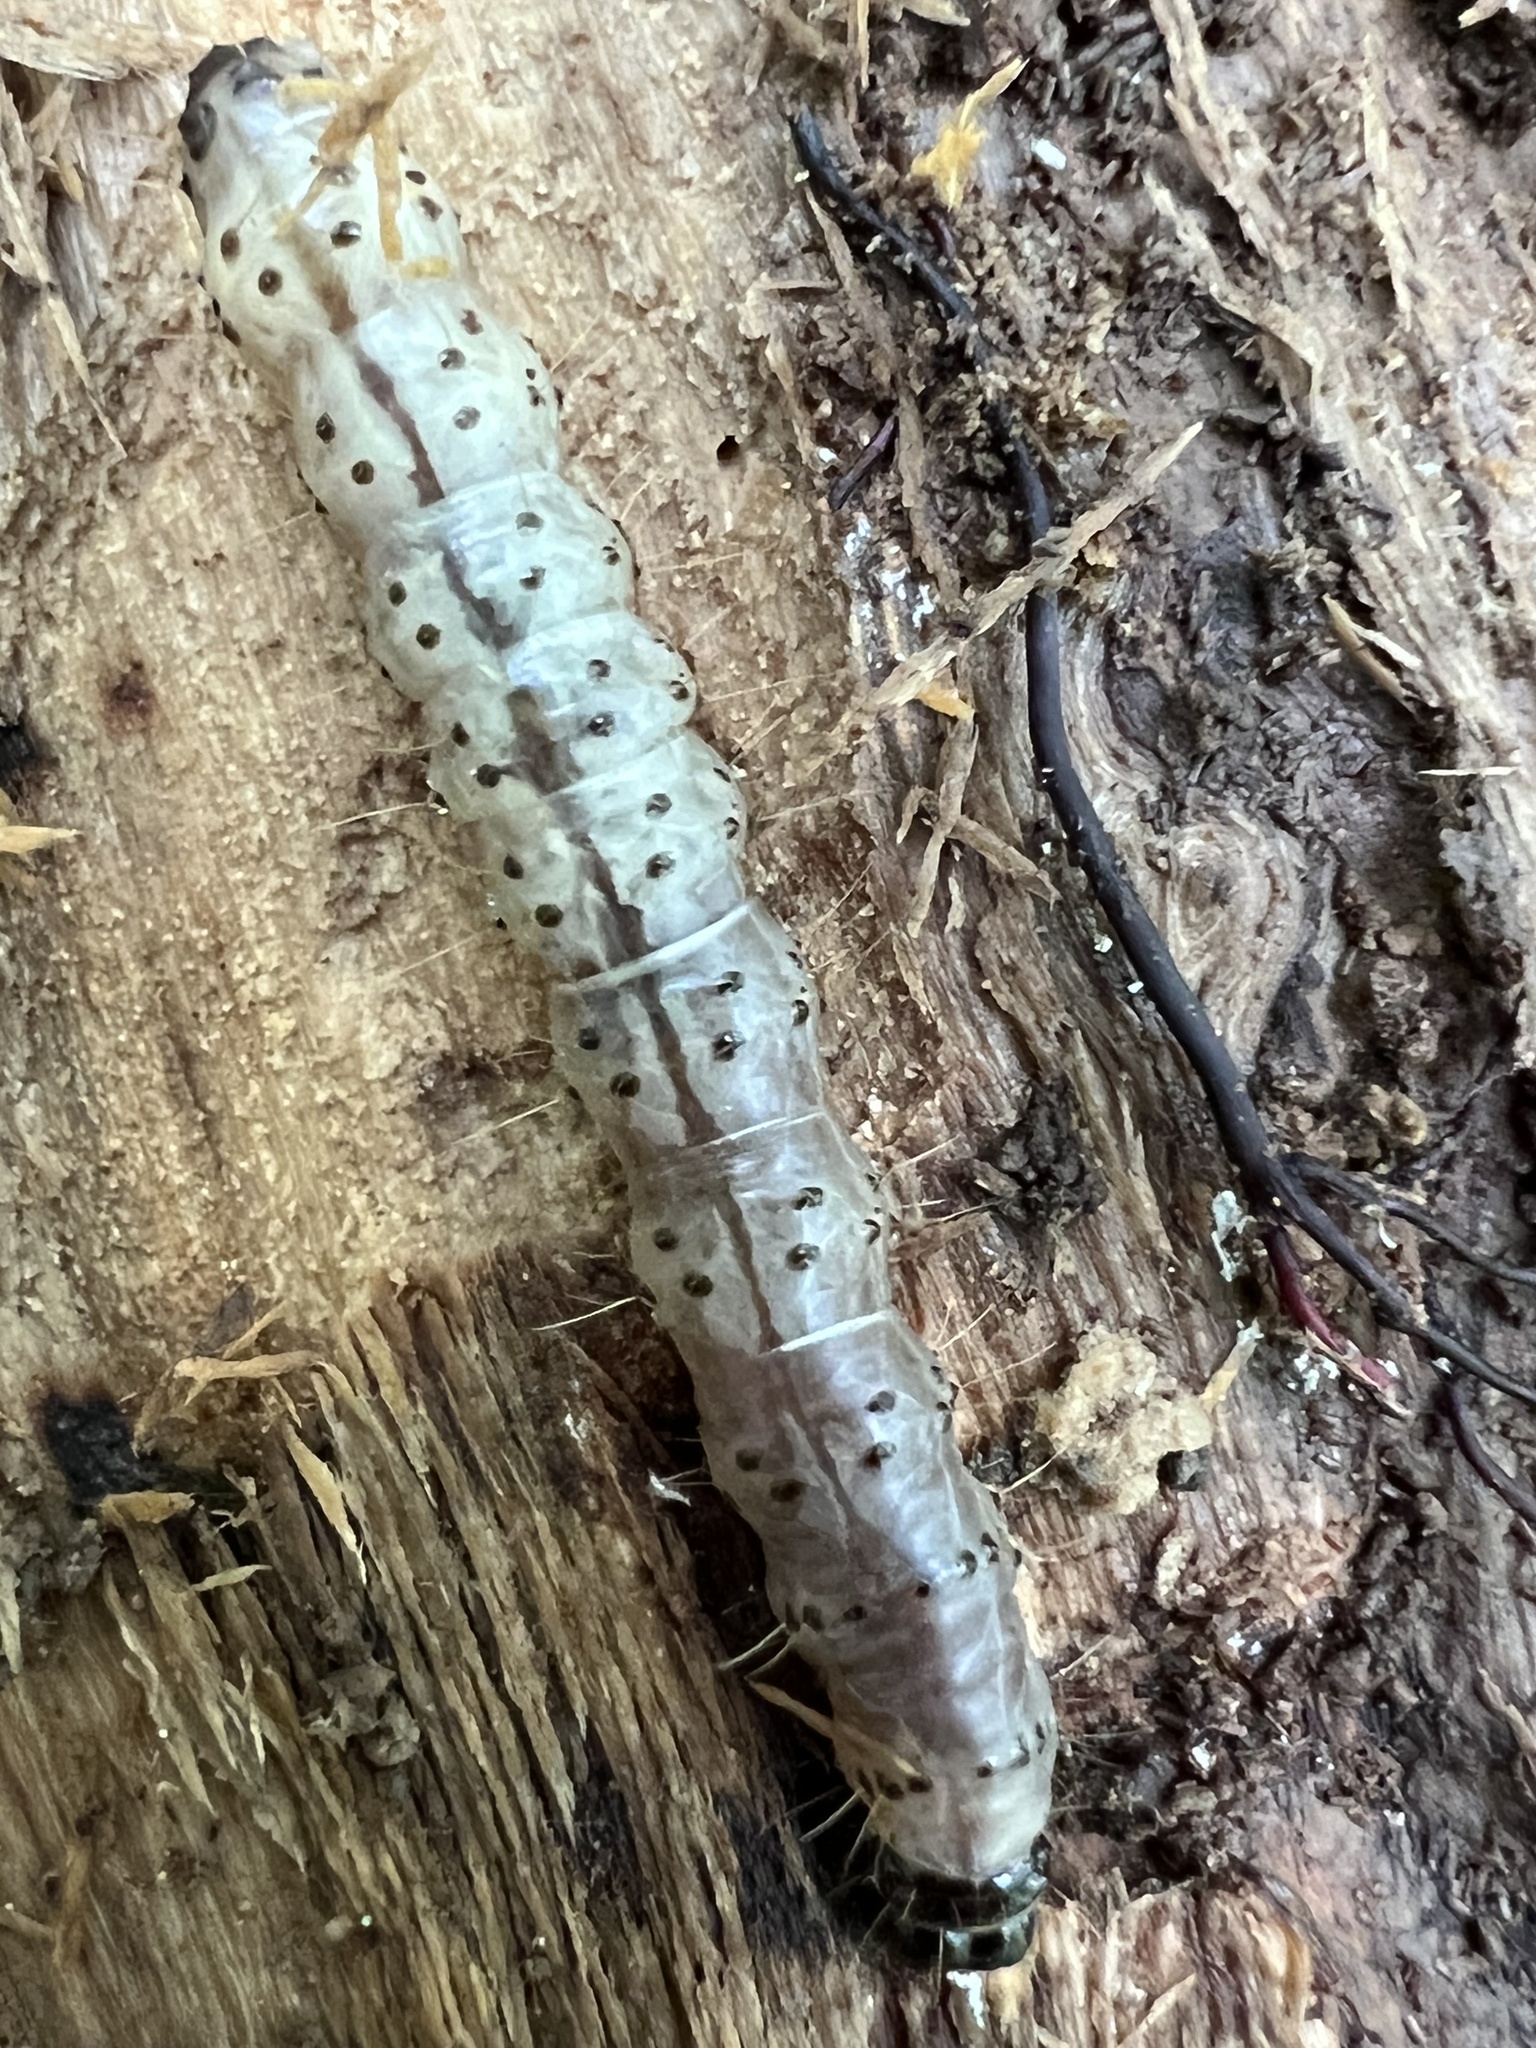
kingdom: Animalia
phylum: Arthropoda
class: Insecta
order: Lepidoptera
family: Erebidae
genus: Scolecocampa
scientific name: Scolecocampa liburna
